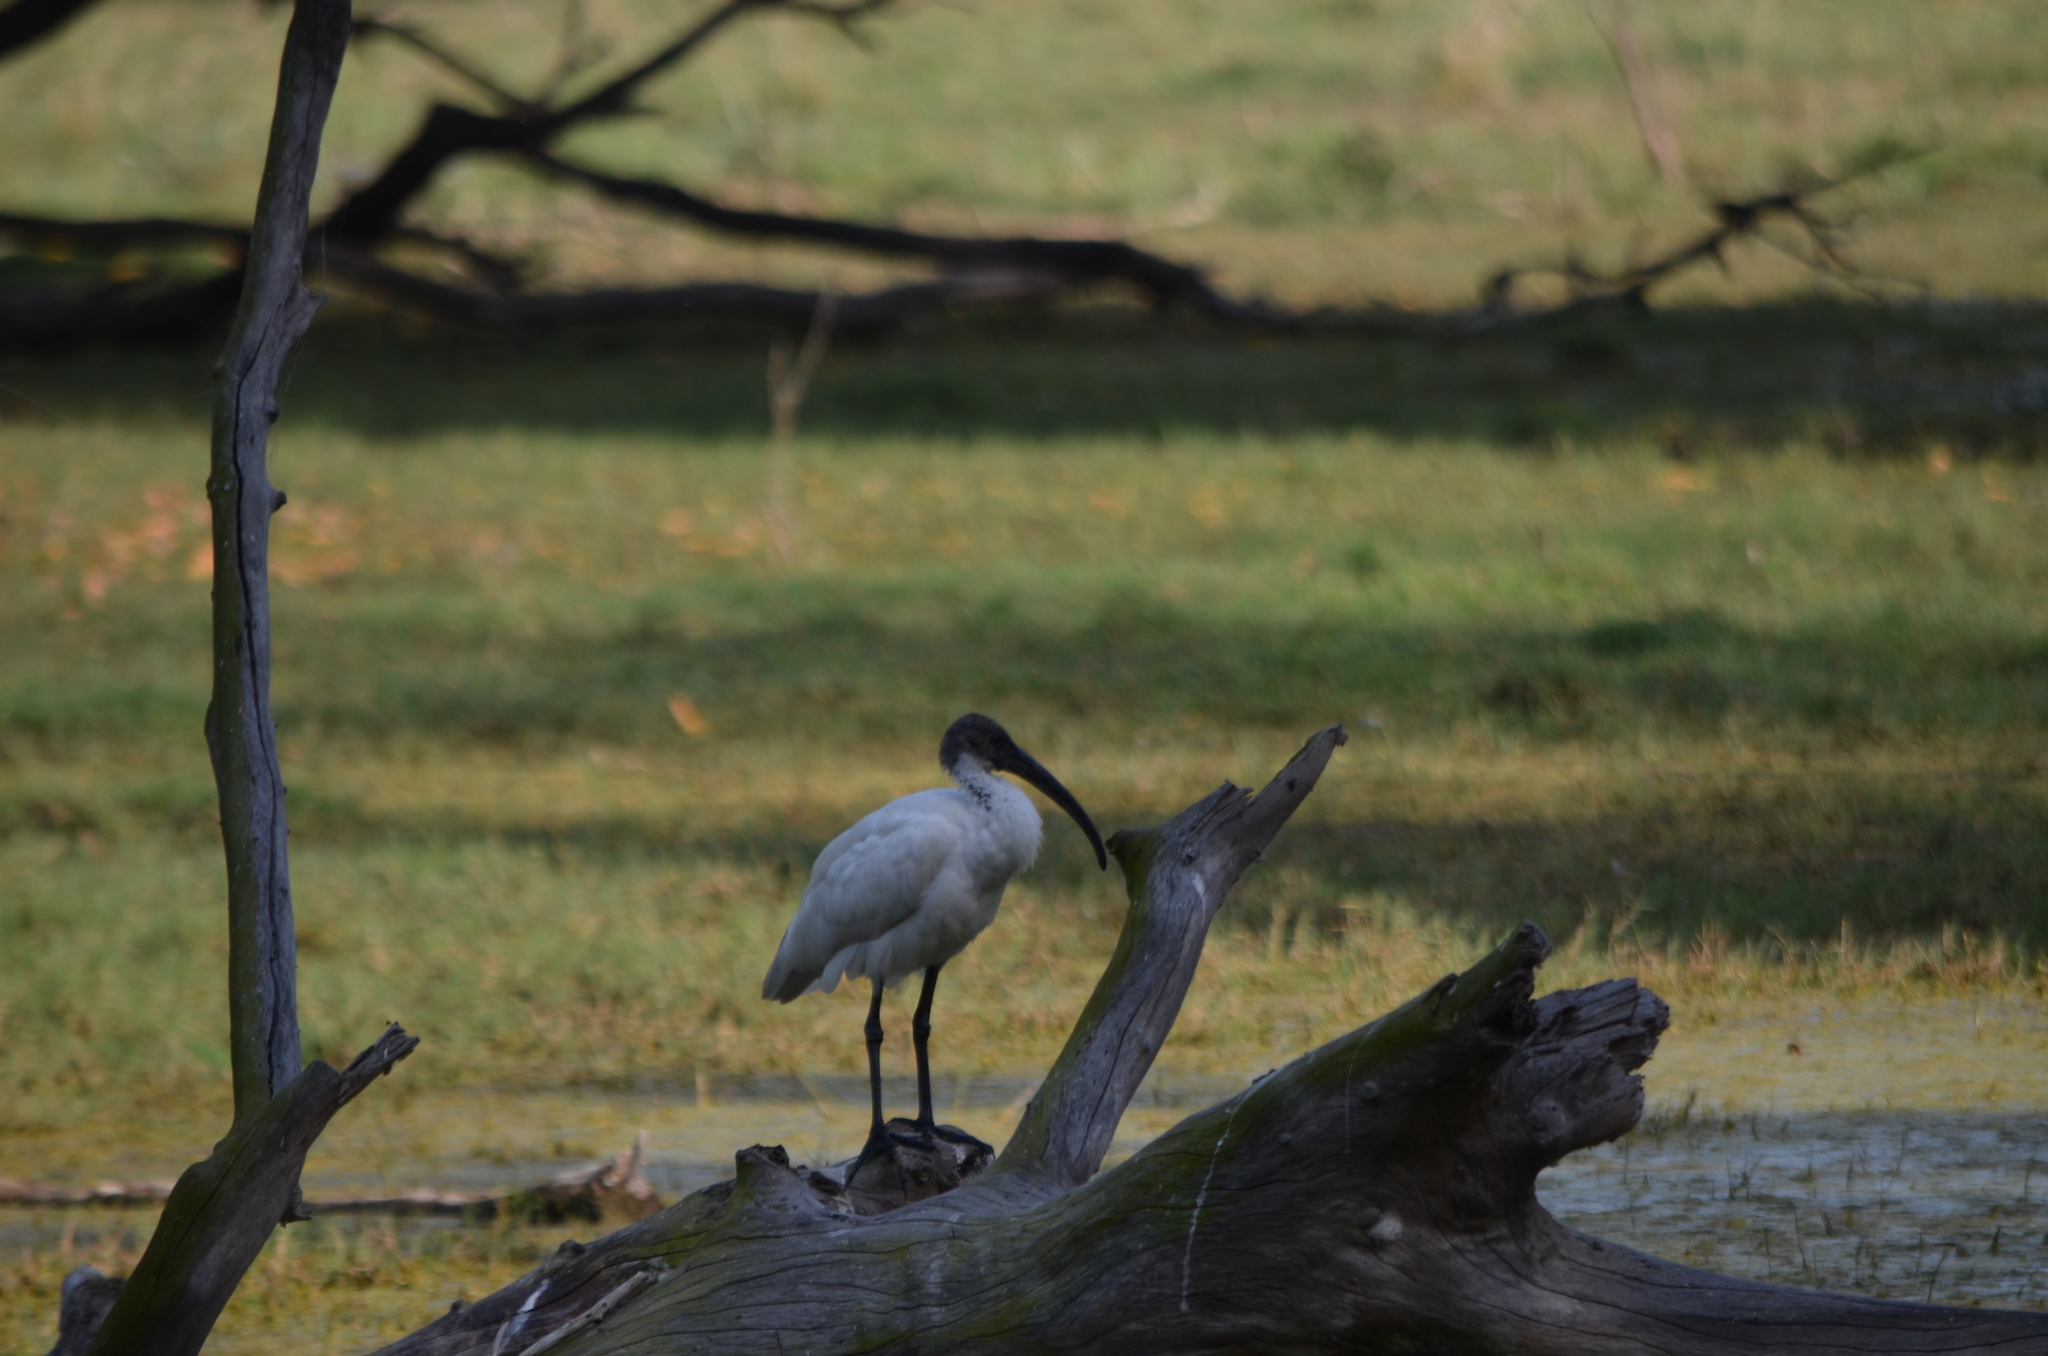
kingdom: Animalia
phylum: Chordata
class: Aves
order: Pelecaniformes
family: Threskiornithidae
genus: Threskiornis
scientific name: Threskiornis melanocephalus
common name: Black-headed ibis
